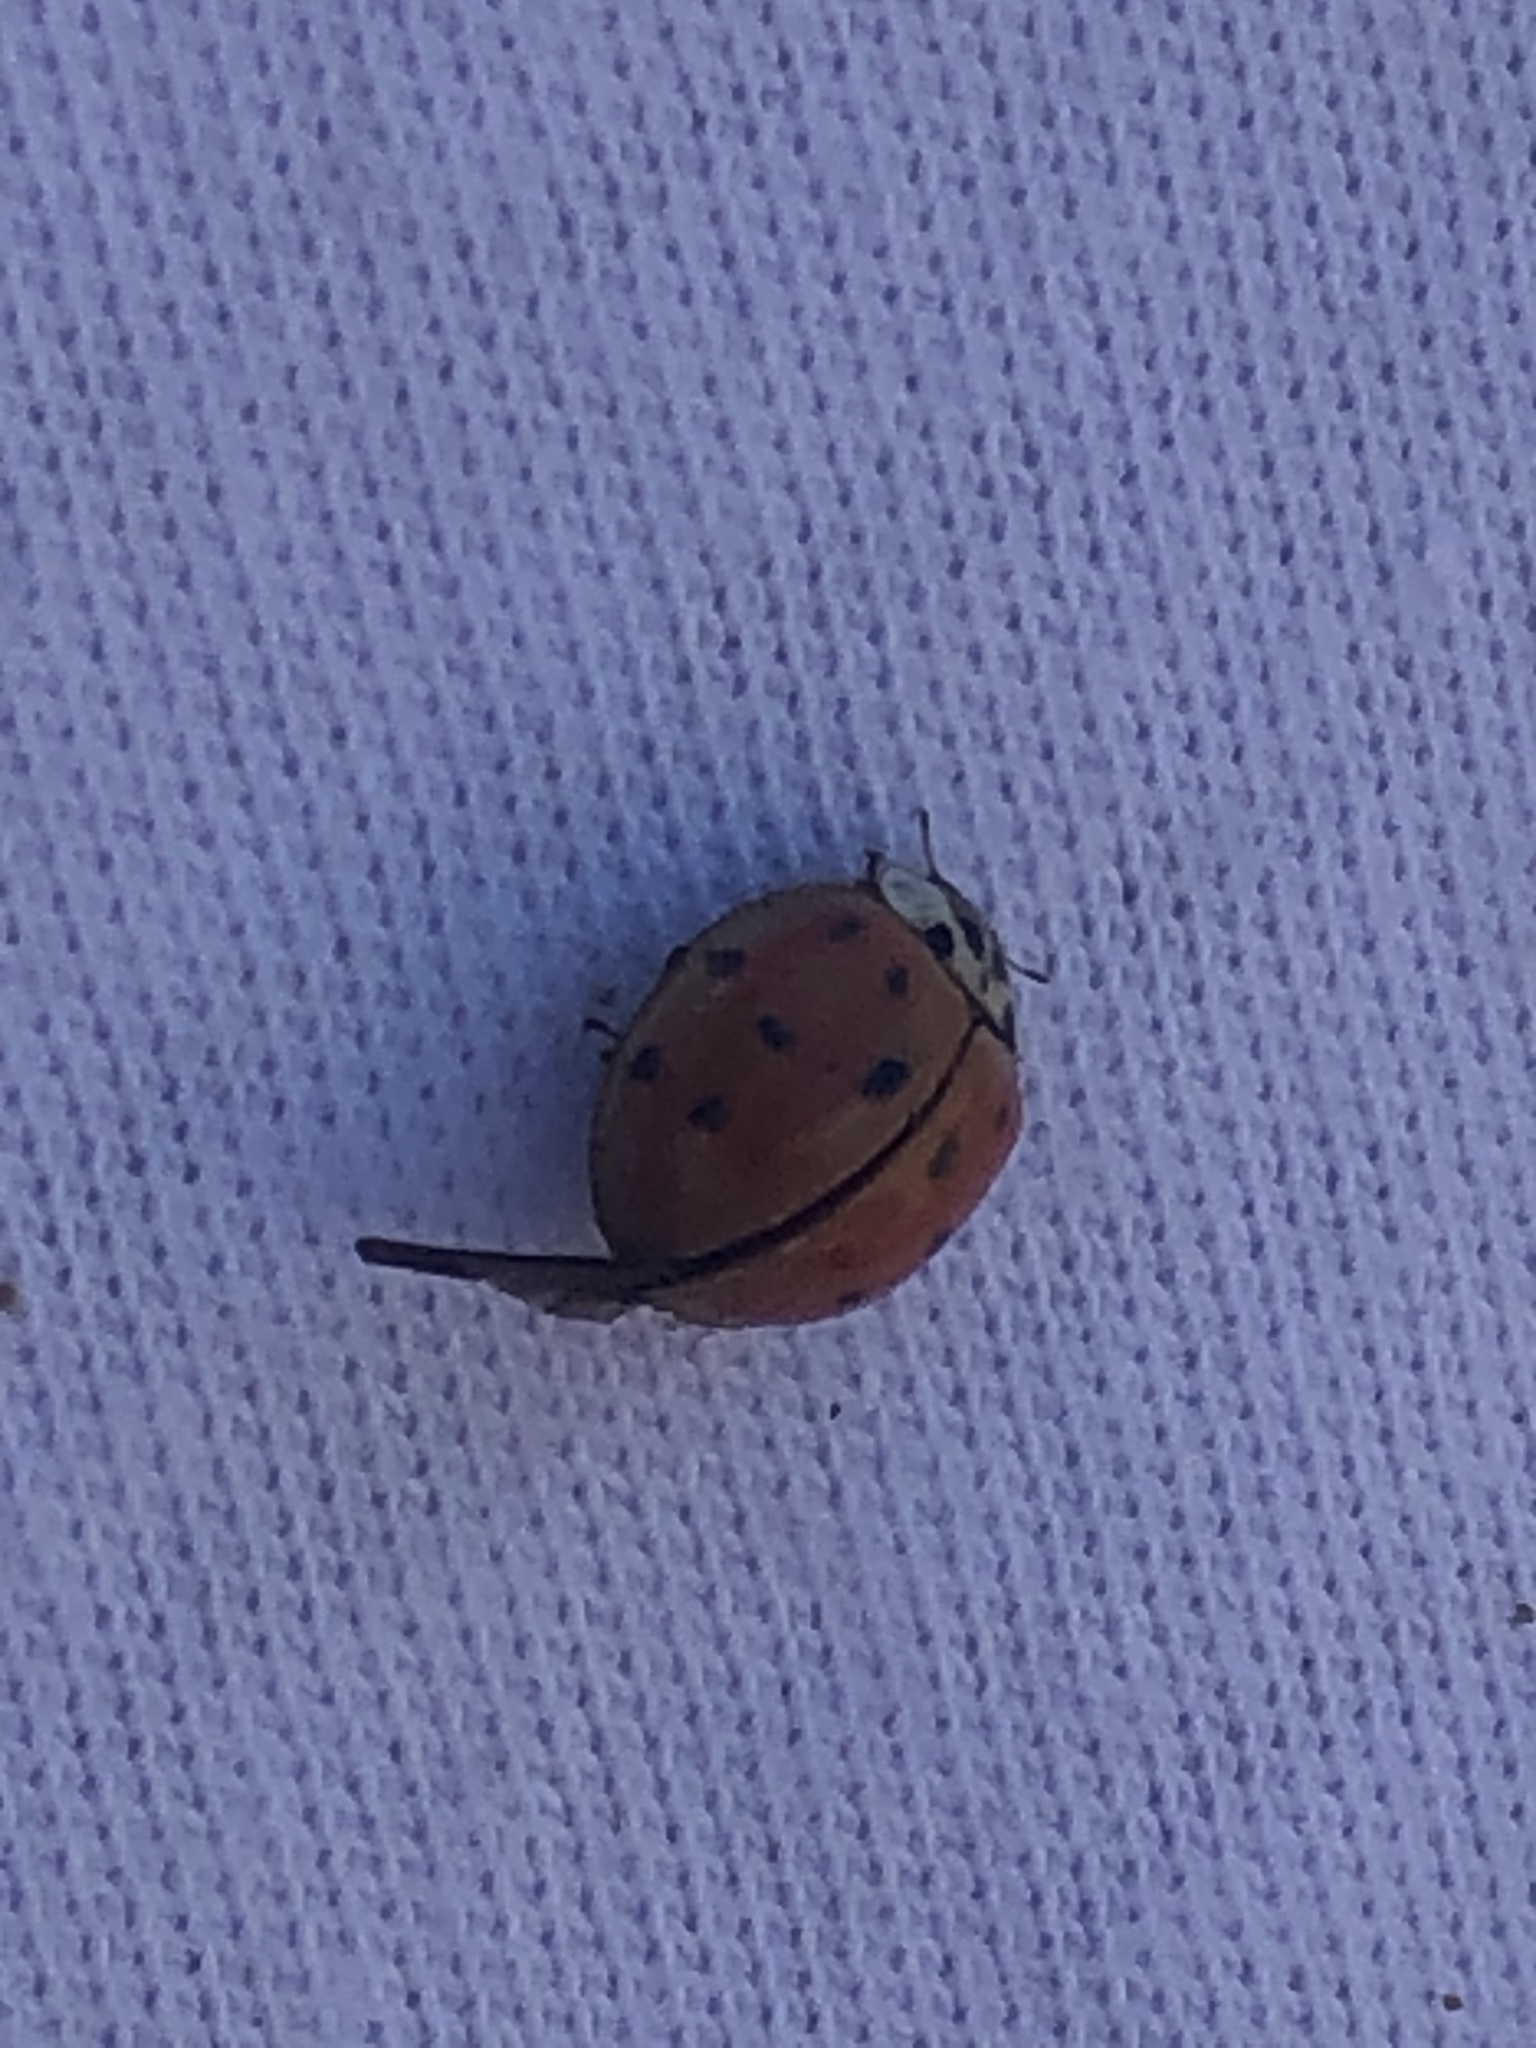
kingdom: Animalia
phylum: Arthropoda
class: Insecta
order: Coleoptera
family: Coccinellidae
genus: Harmonia
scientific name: Harmonia axyridis
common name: Harlequin ladybird
